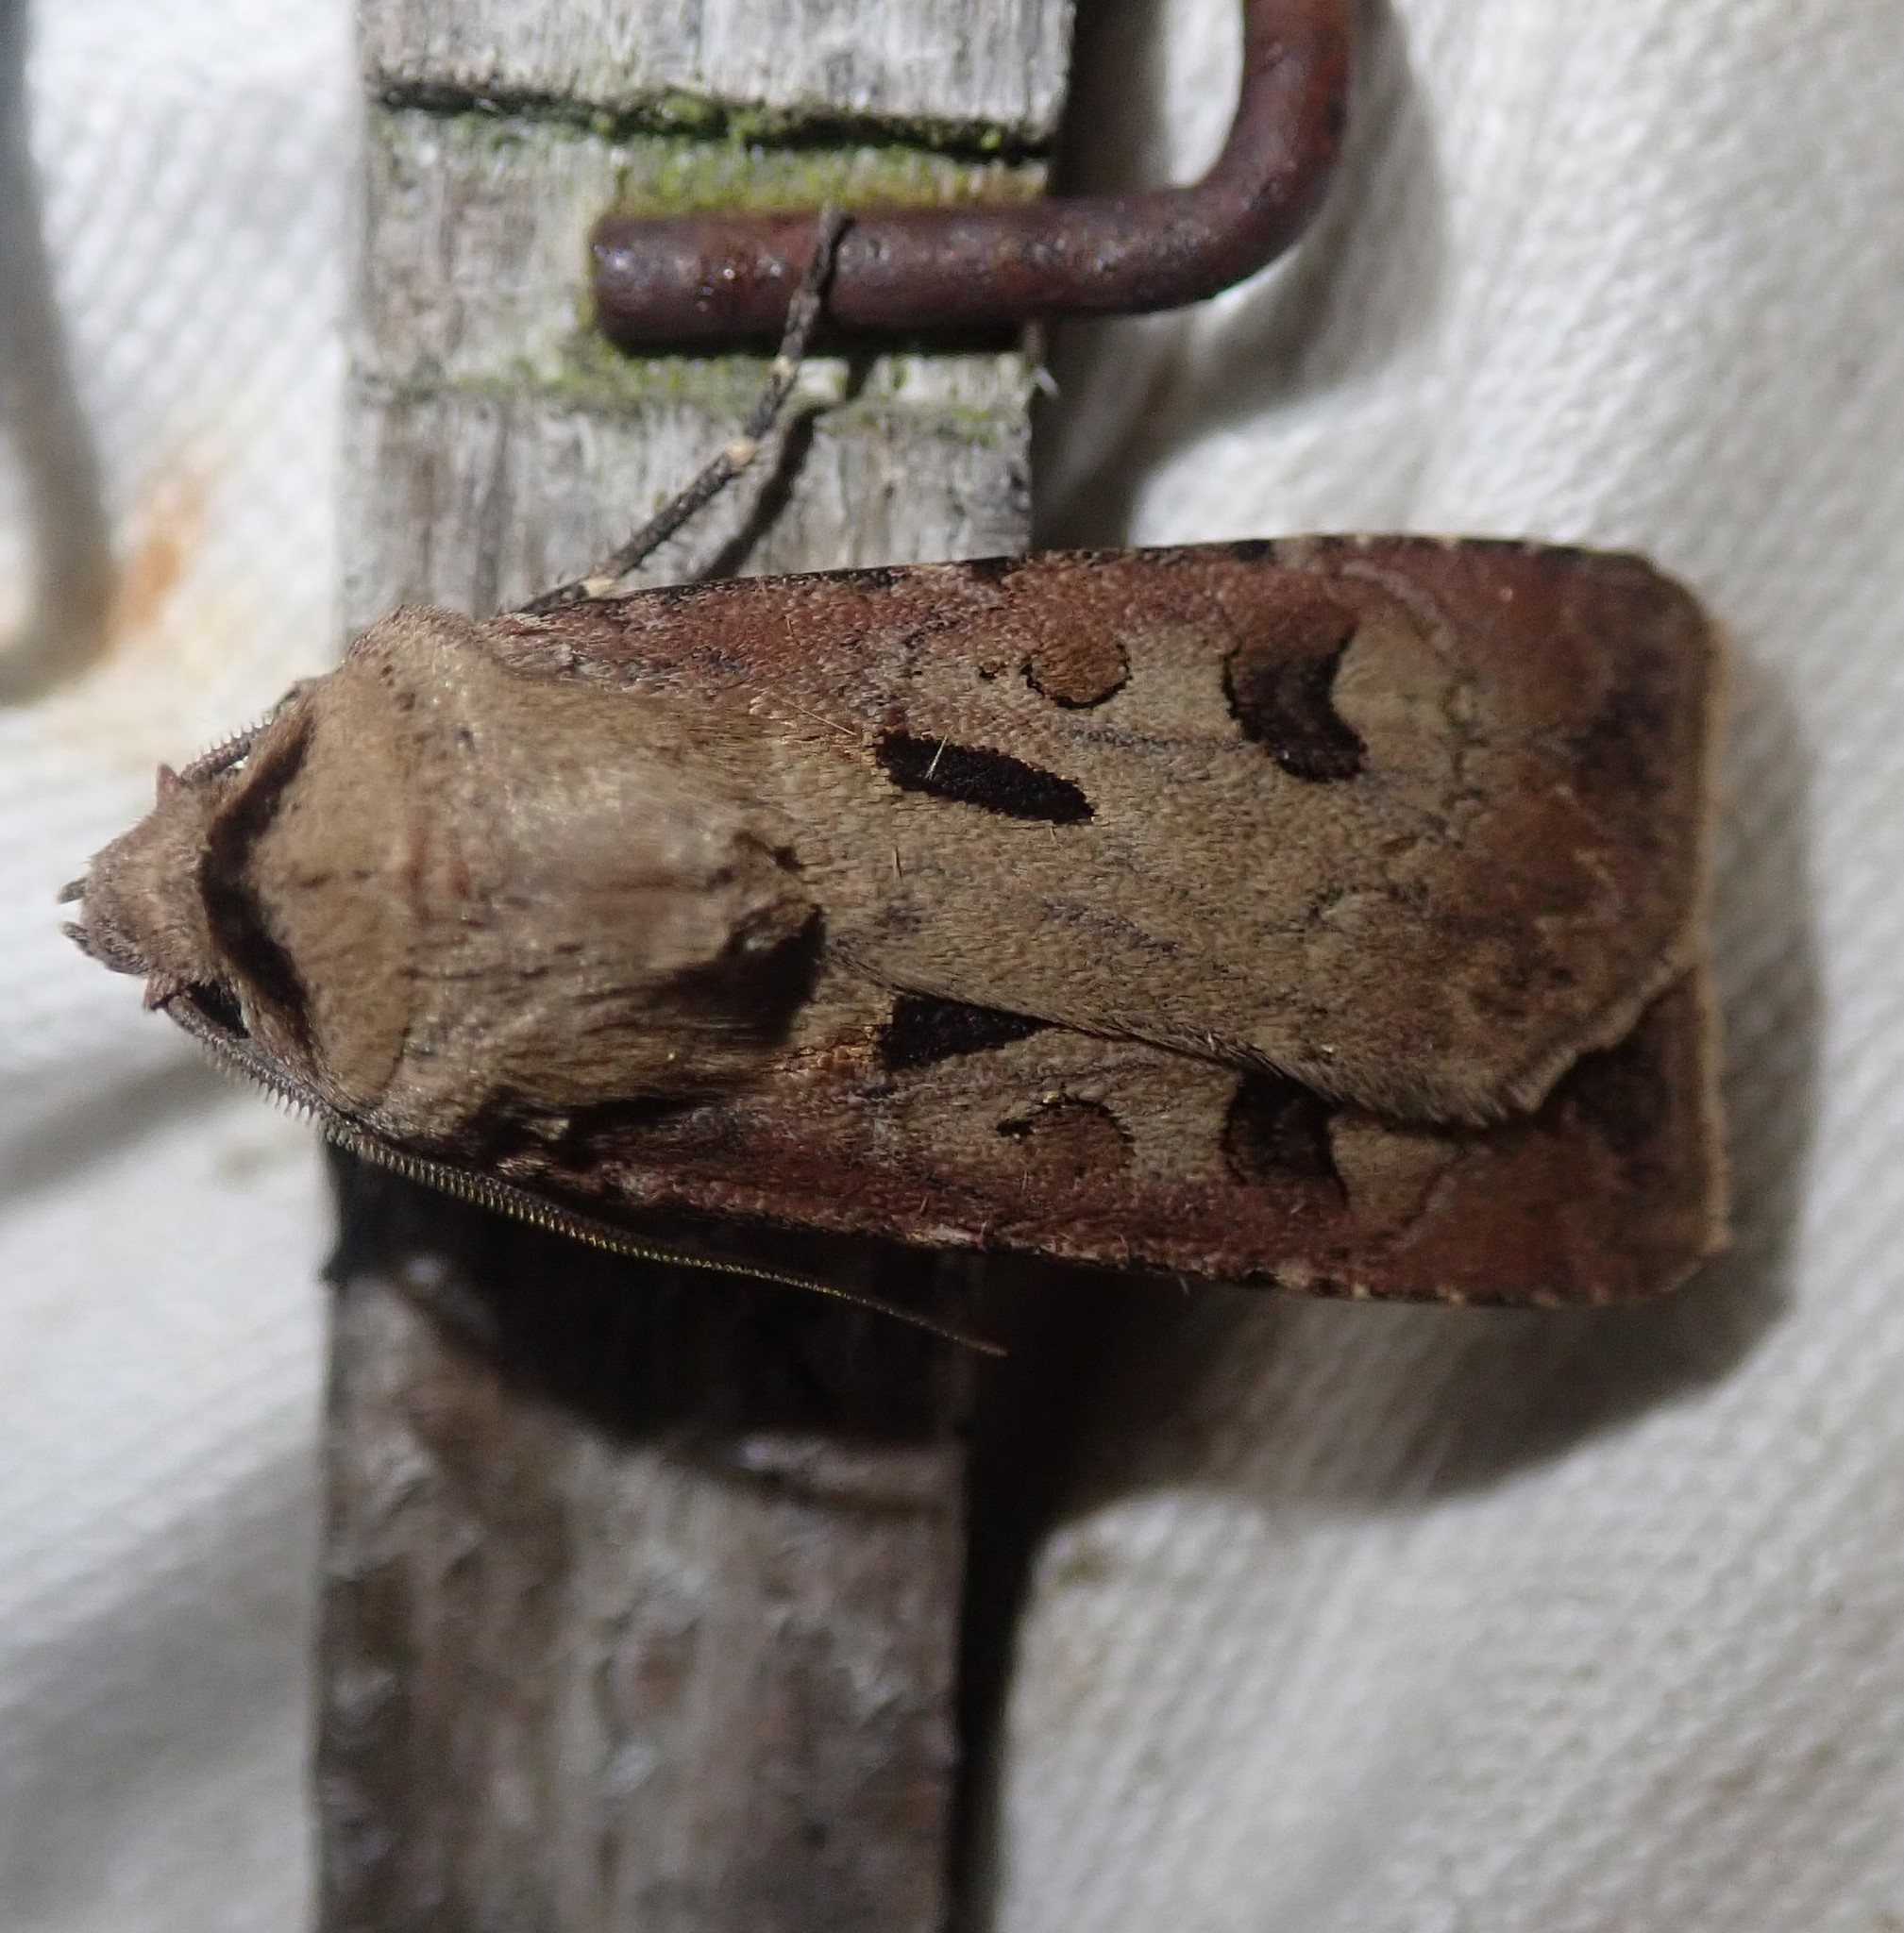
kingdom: Animalia
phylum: Arthropoda
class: Insecta
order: Lepidoptera
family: Noctuidae
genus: Agrotis
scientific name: Agrotis exclamationis
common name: Heart and dart
